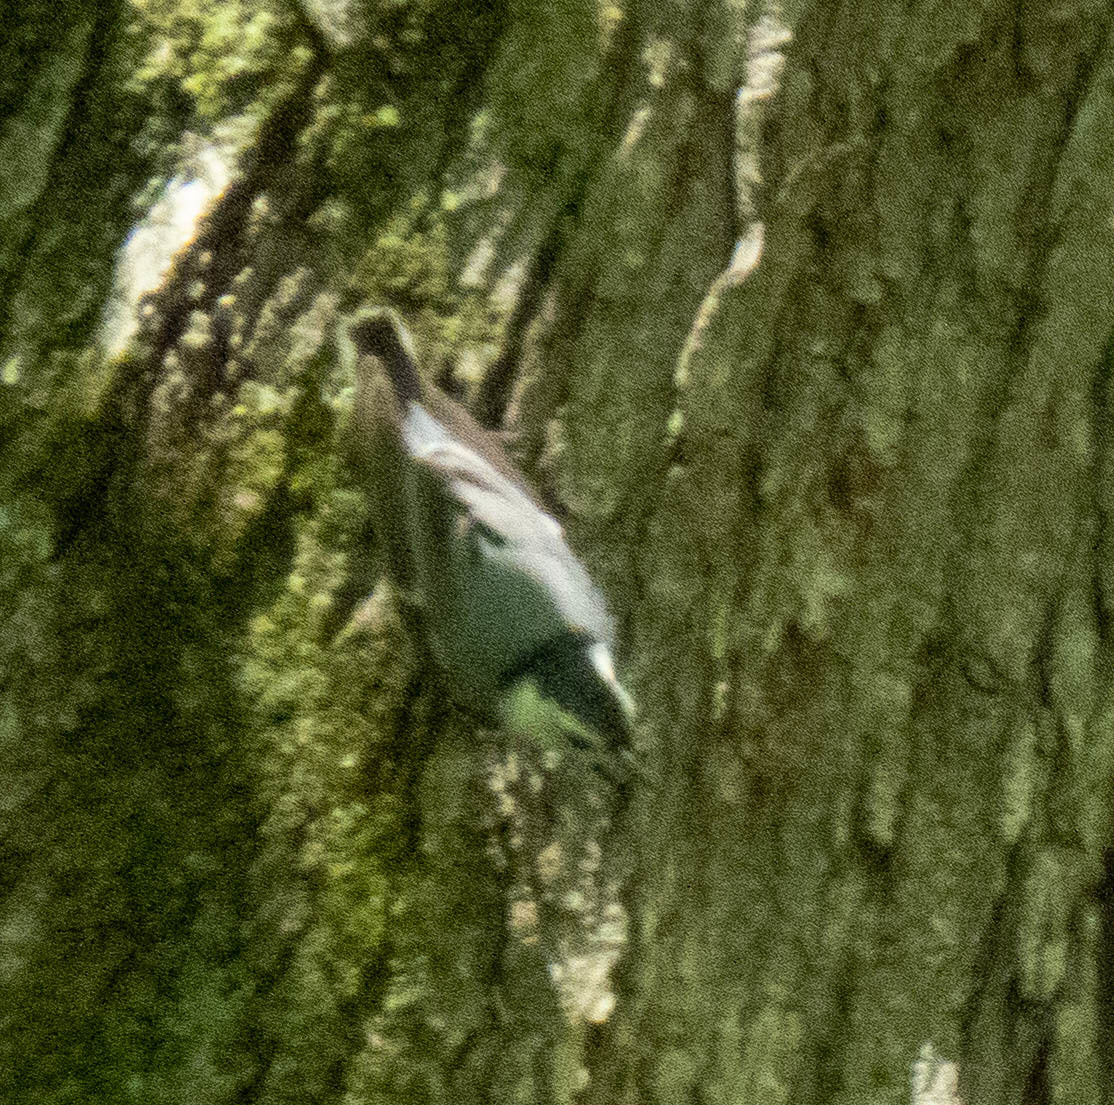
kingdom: Animalia
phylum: Chordata
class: Aves
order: Passeriformes
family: Sittidae
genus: Sitta
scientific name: Sitta carolinensis
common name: White-breasted nuthatch
